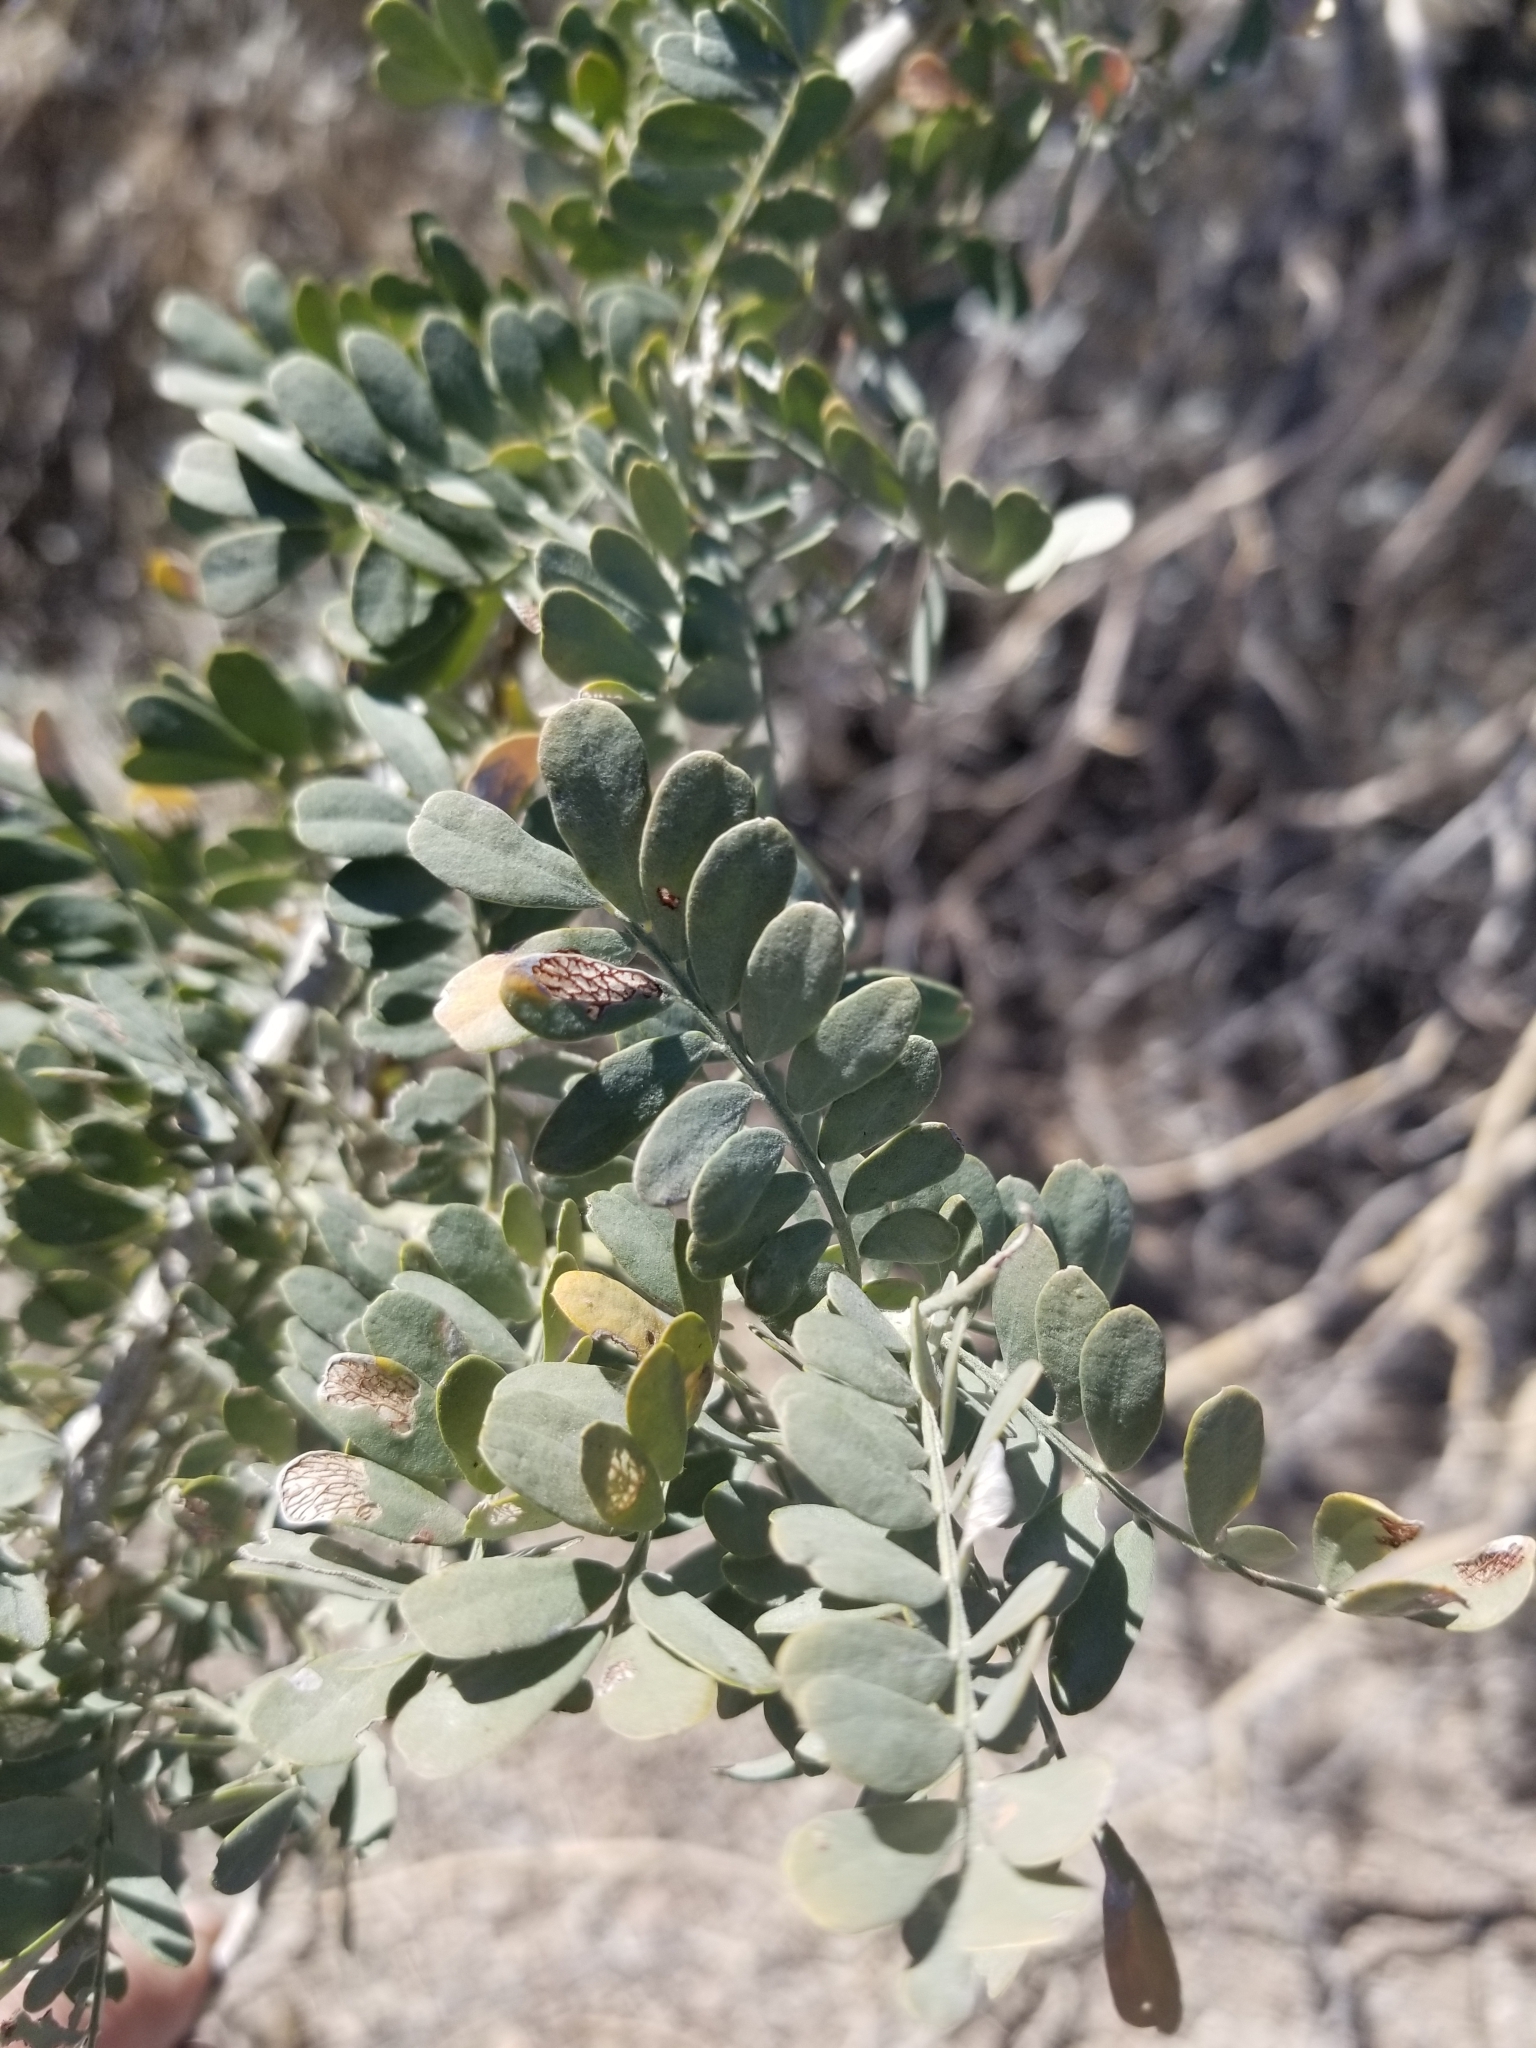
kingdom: Plantae
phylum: Tracheophyta
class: Magnoliopsida
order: Fabales
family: Fabaceae
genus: Olneya
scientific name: Olneya tesota
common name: Desert ironwood
